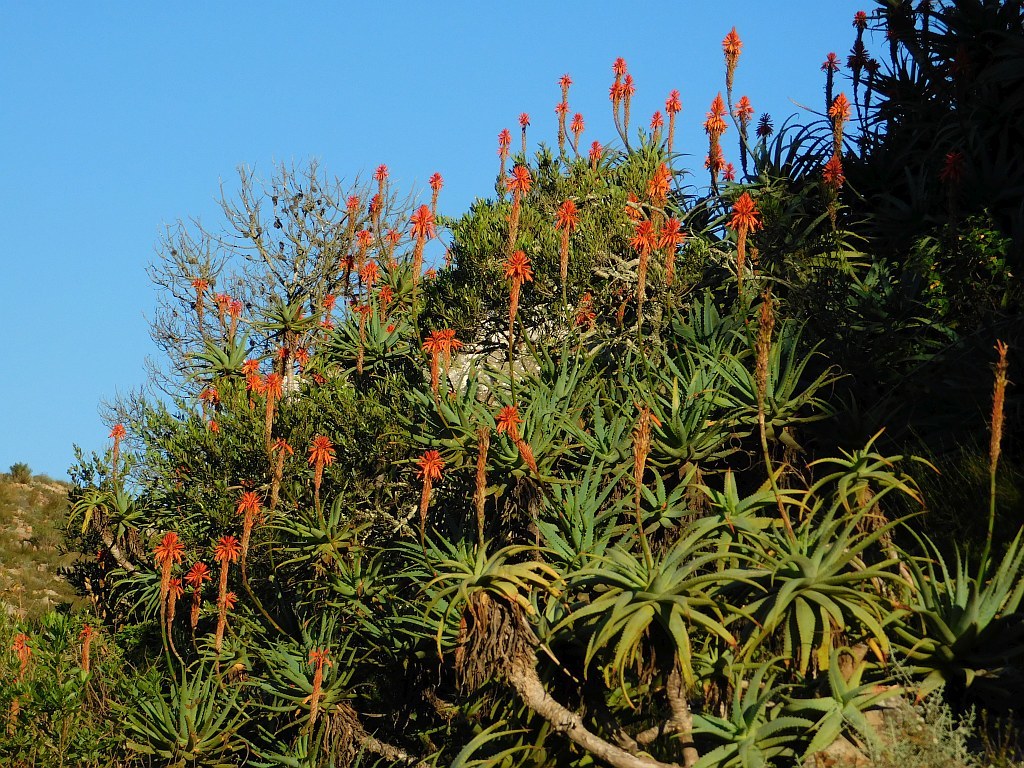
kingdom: Plantae
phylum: Tracheophyta
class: Liliopsida
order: Asparagales
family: Asphodelaceae
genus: Aloe
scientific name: Aloe arborescens
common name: Candelabra aloe
